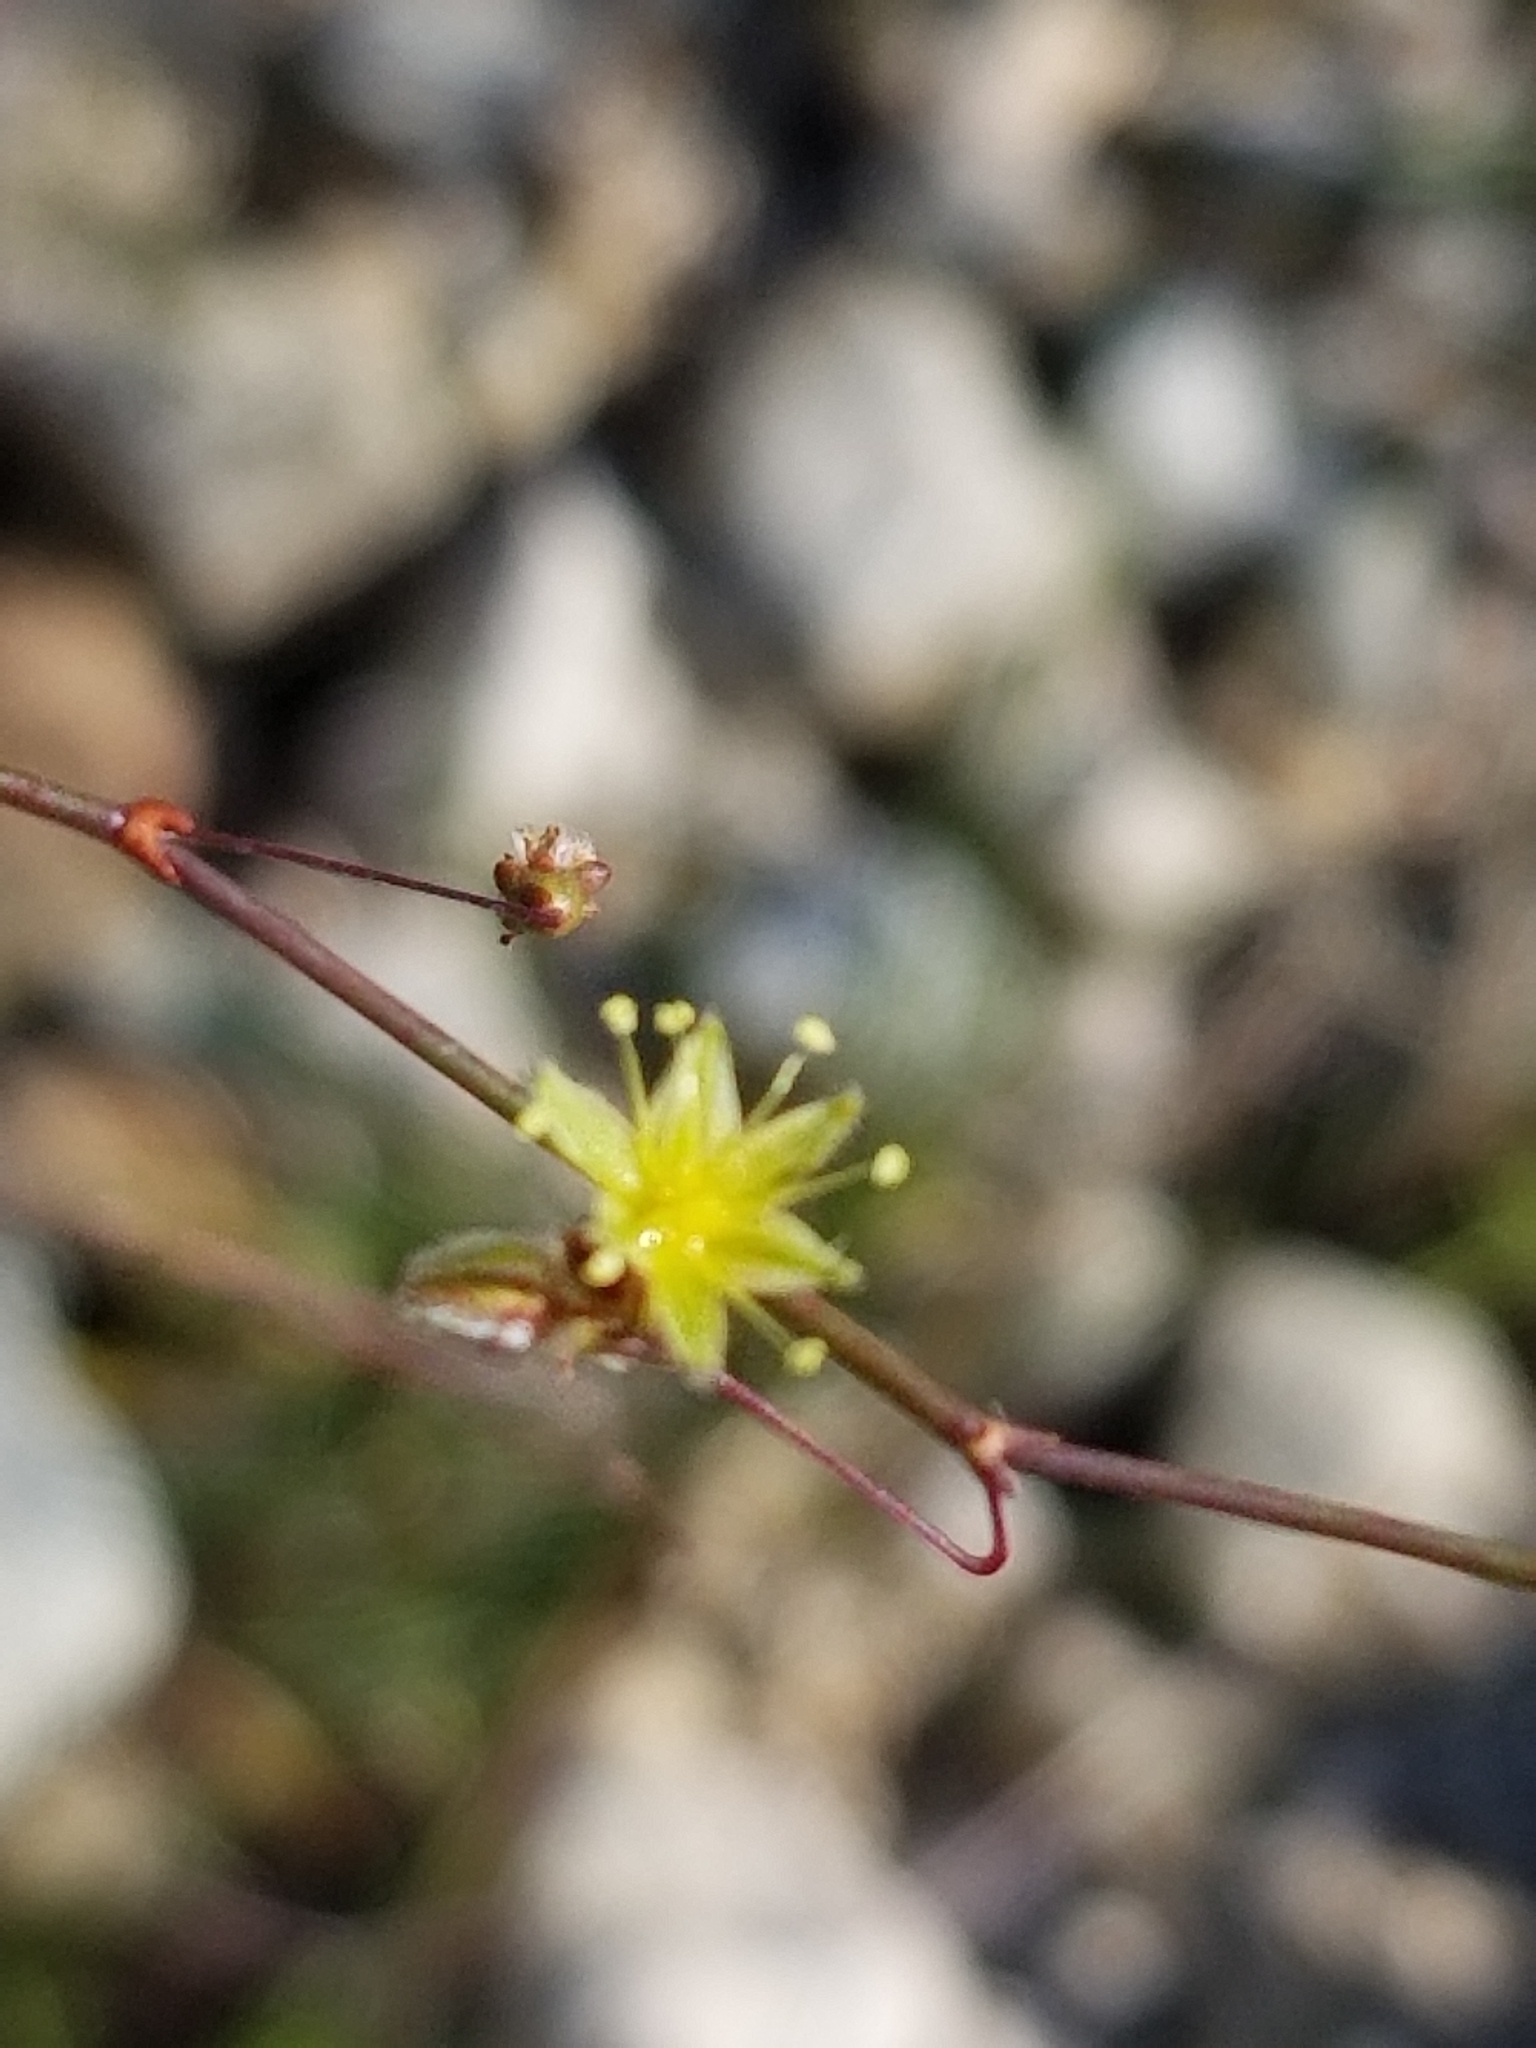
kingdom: Plantae
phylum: Tracheophyta
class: Magnoliopsida
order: Caryophyllales
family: Polygonaceae
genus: Eriogonum
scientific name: Eriogonum inflatum
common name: Desert trumpet
